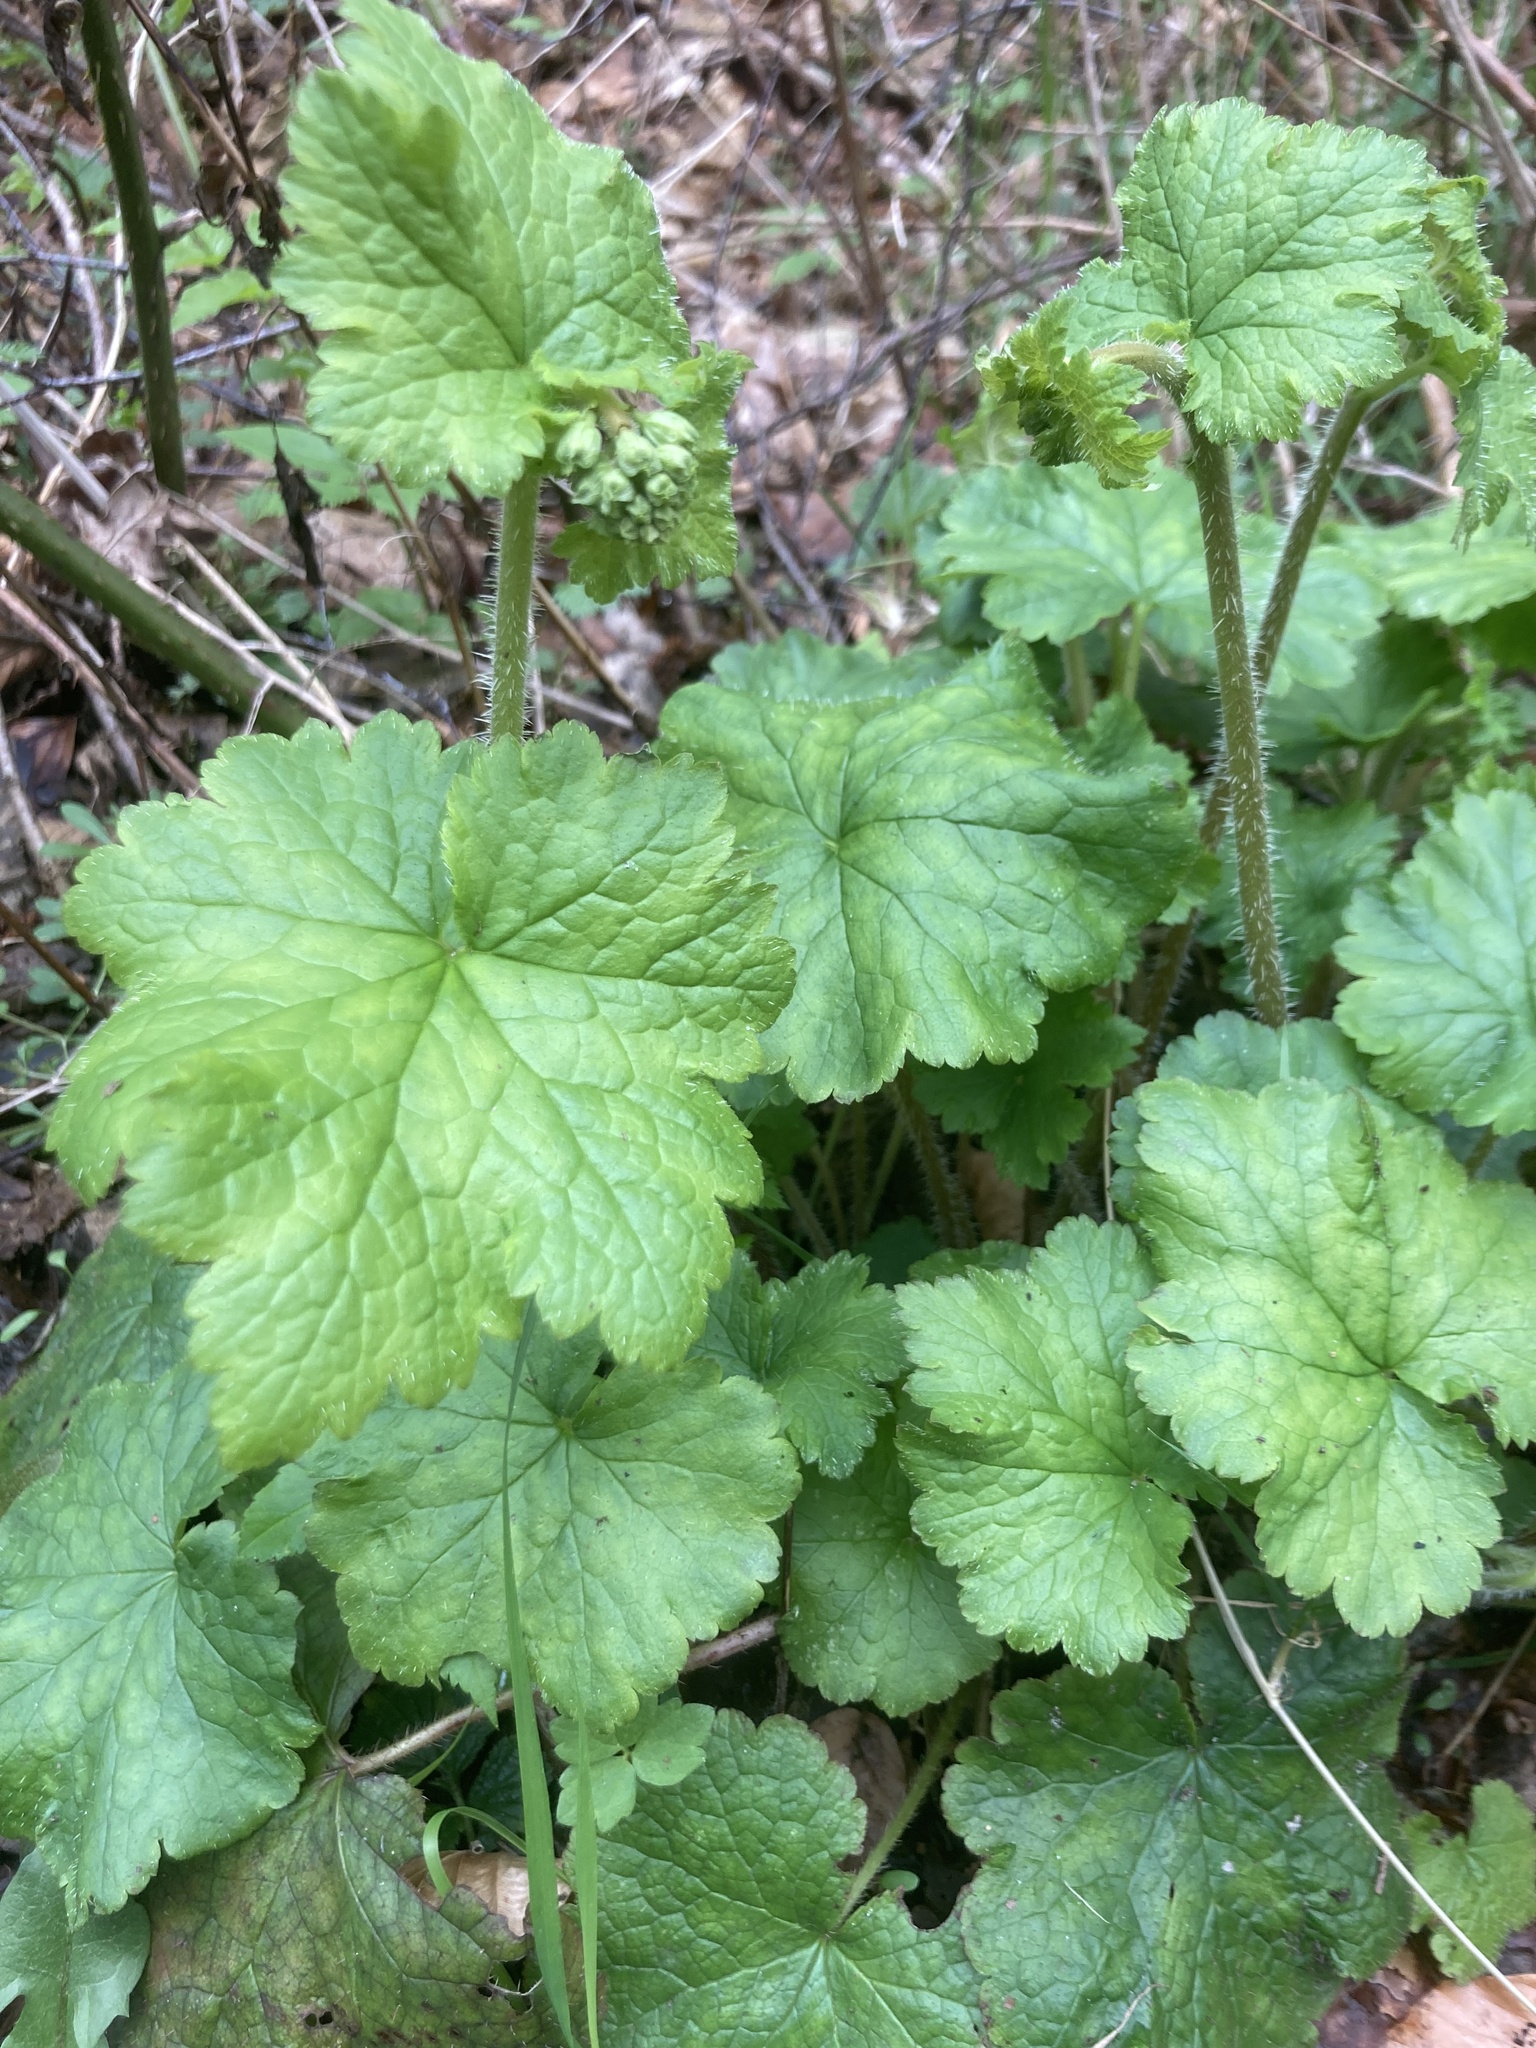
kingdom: Plantae
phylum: Tracheophyta
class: Magnoliopsida
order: Saxifragales
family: Saxifragaceae
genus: Tellima
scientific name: Tellima grandiflora
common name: Fringecups
